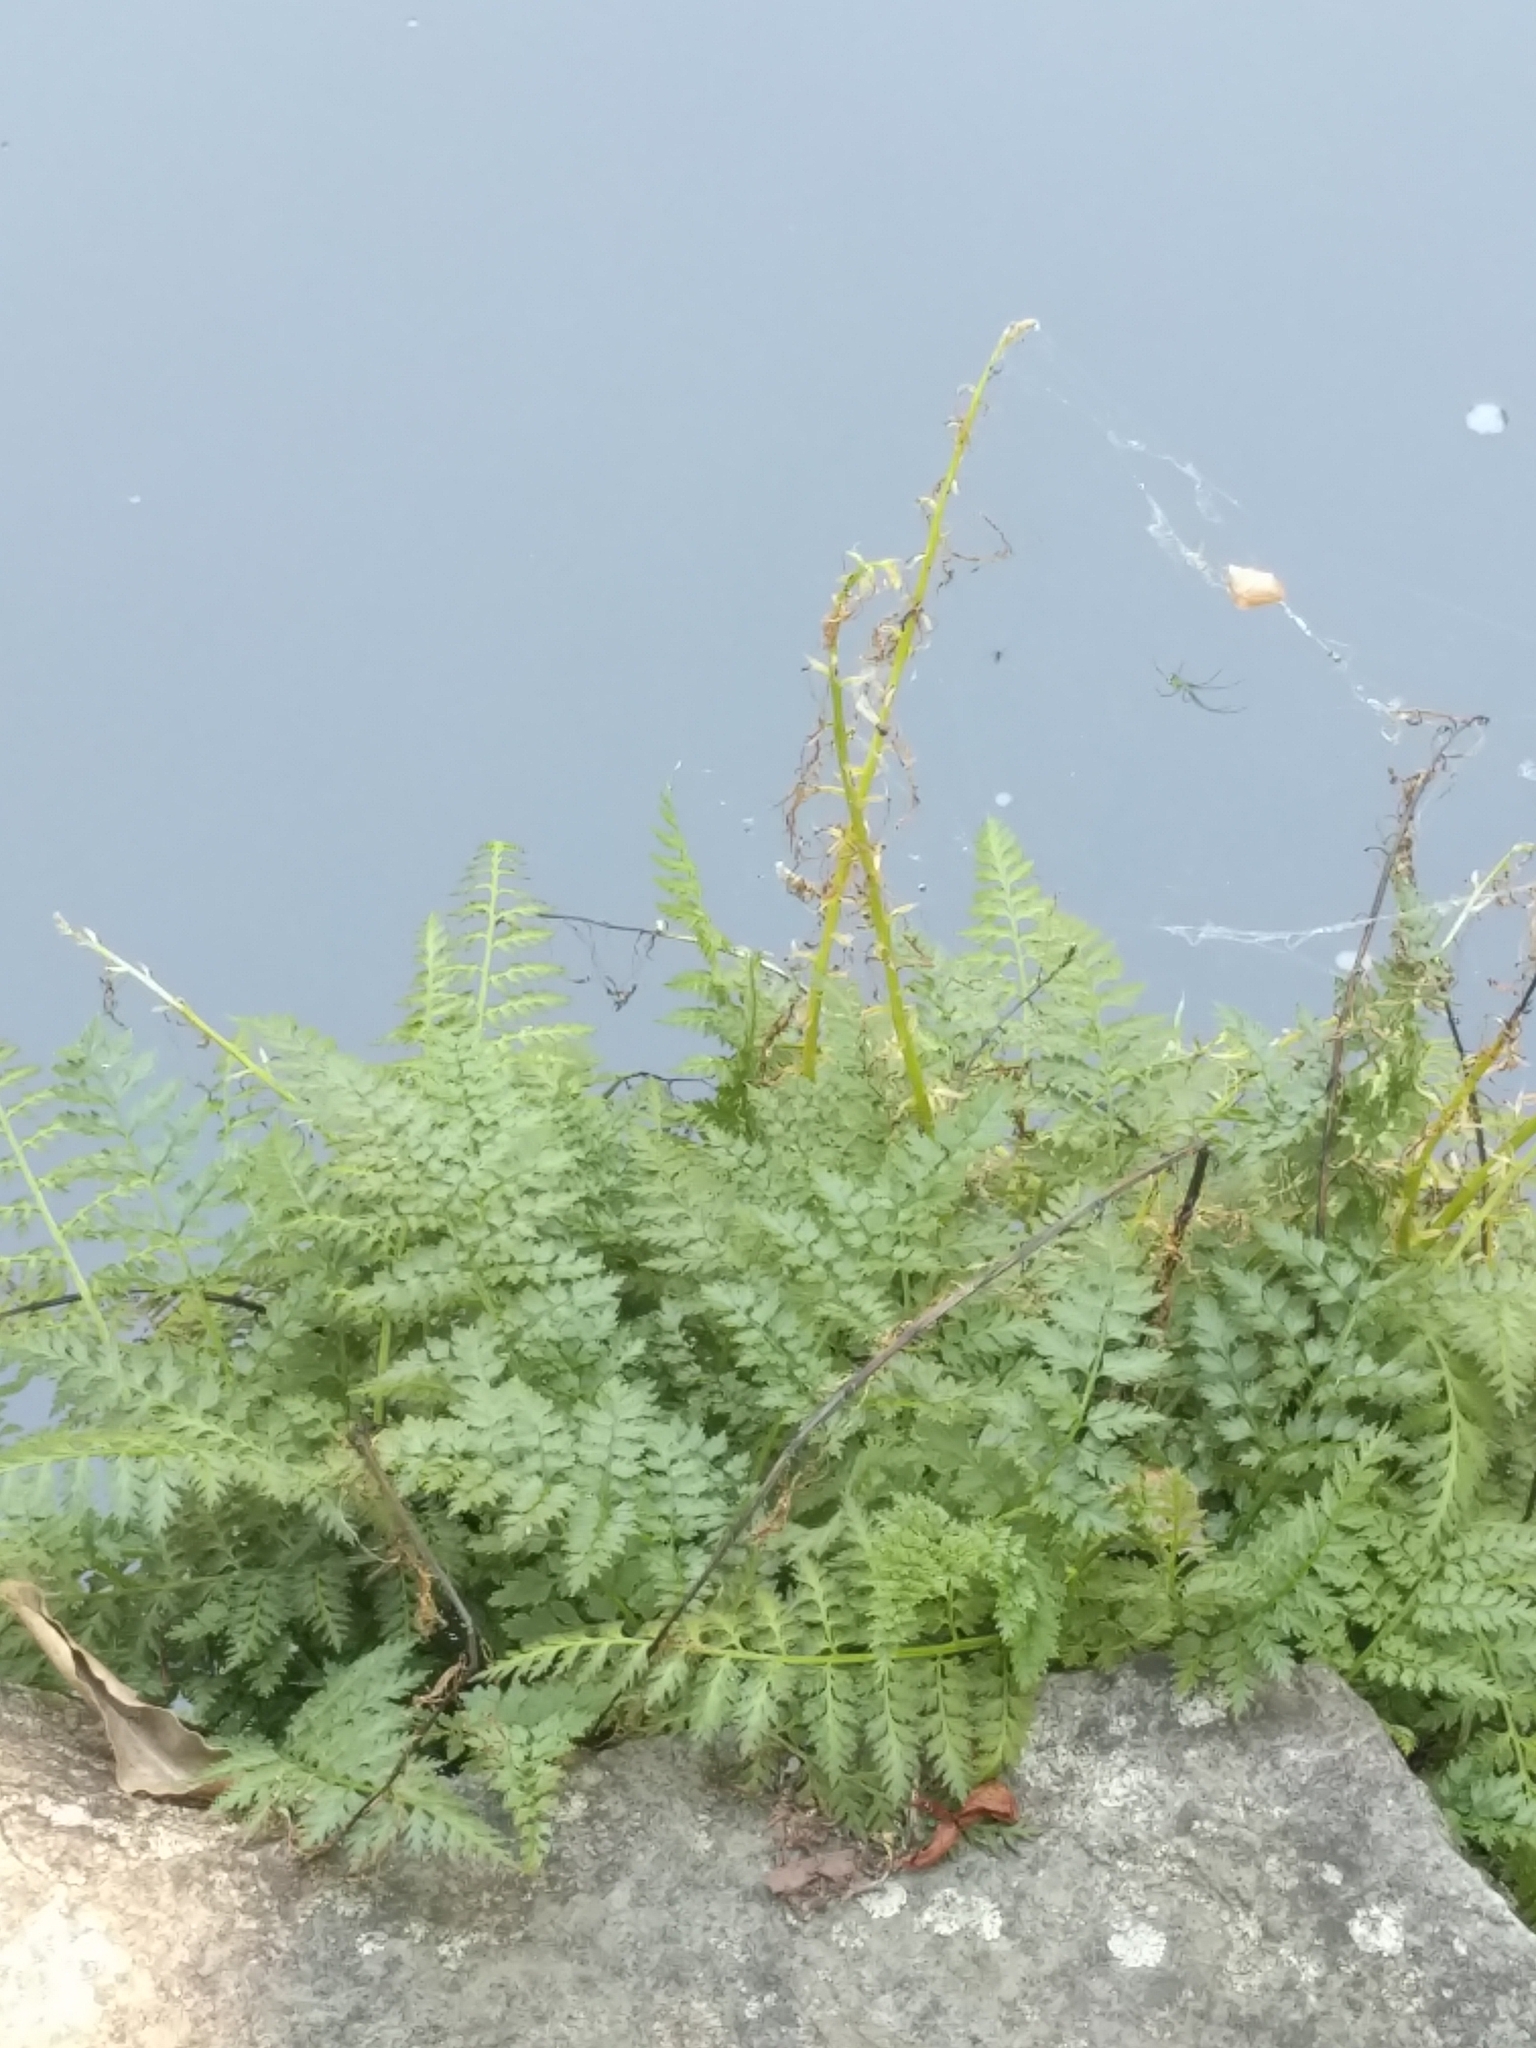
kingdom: Plantae
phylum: Tracheophyta
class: Magnoliopsida
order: Ranunculales
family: Papaveraceae
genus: Corydalis
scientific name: Corydalis cheilanthifolia
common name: Fern-leaved corydalis
